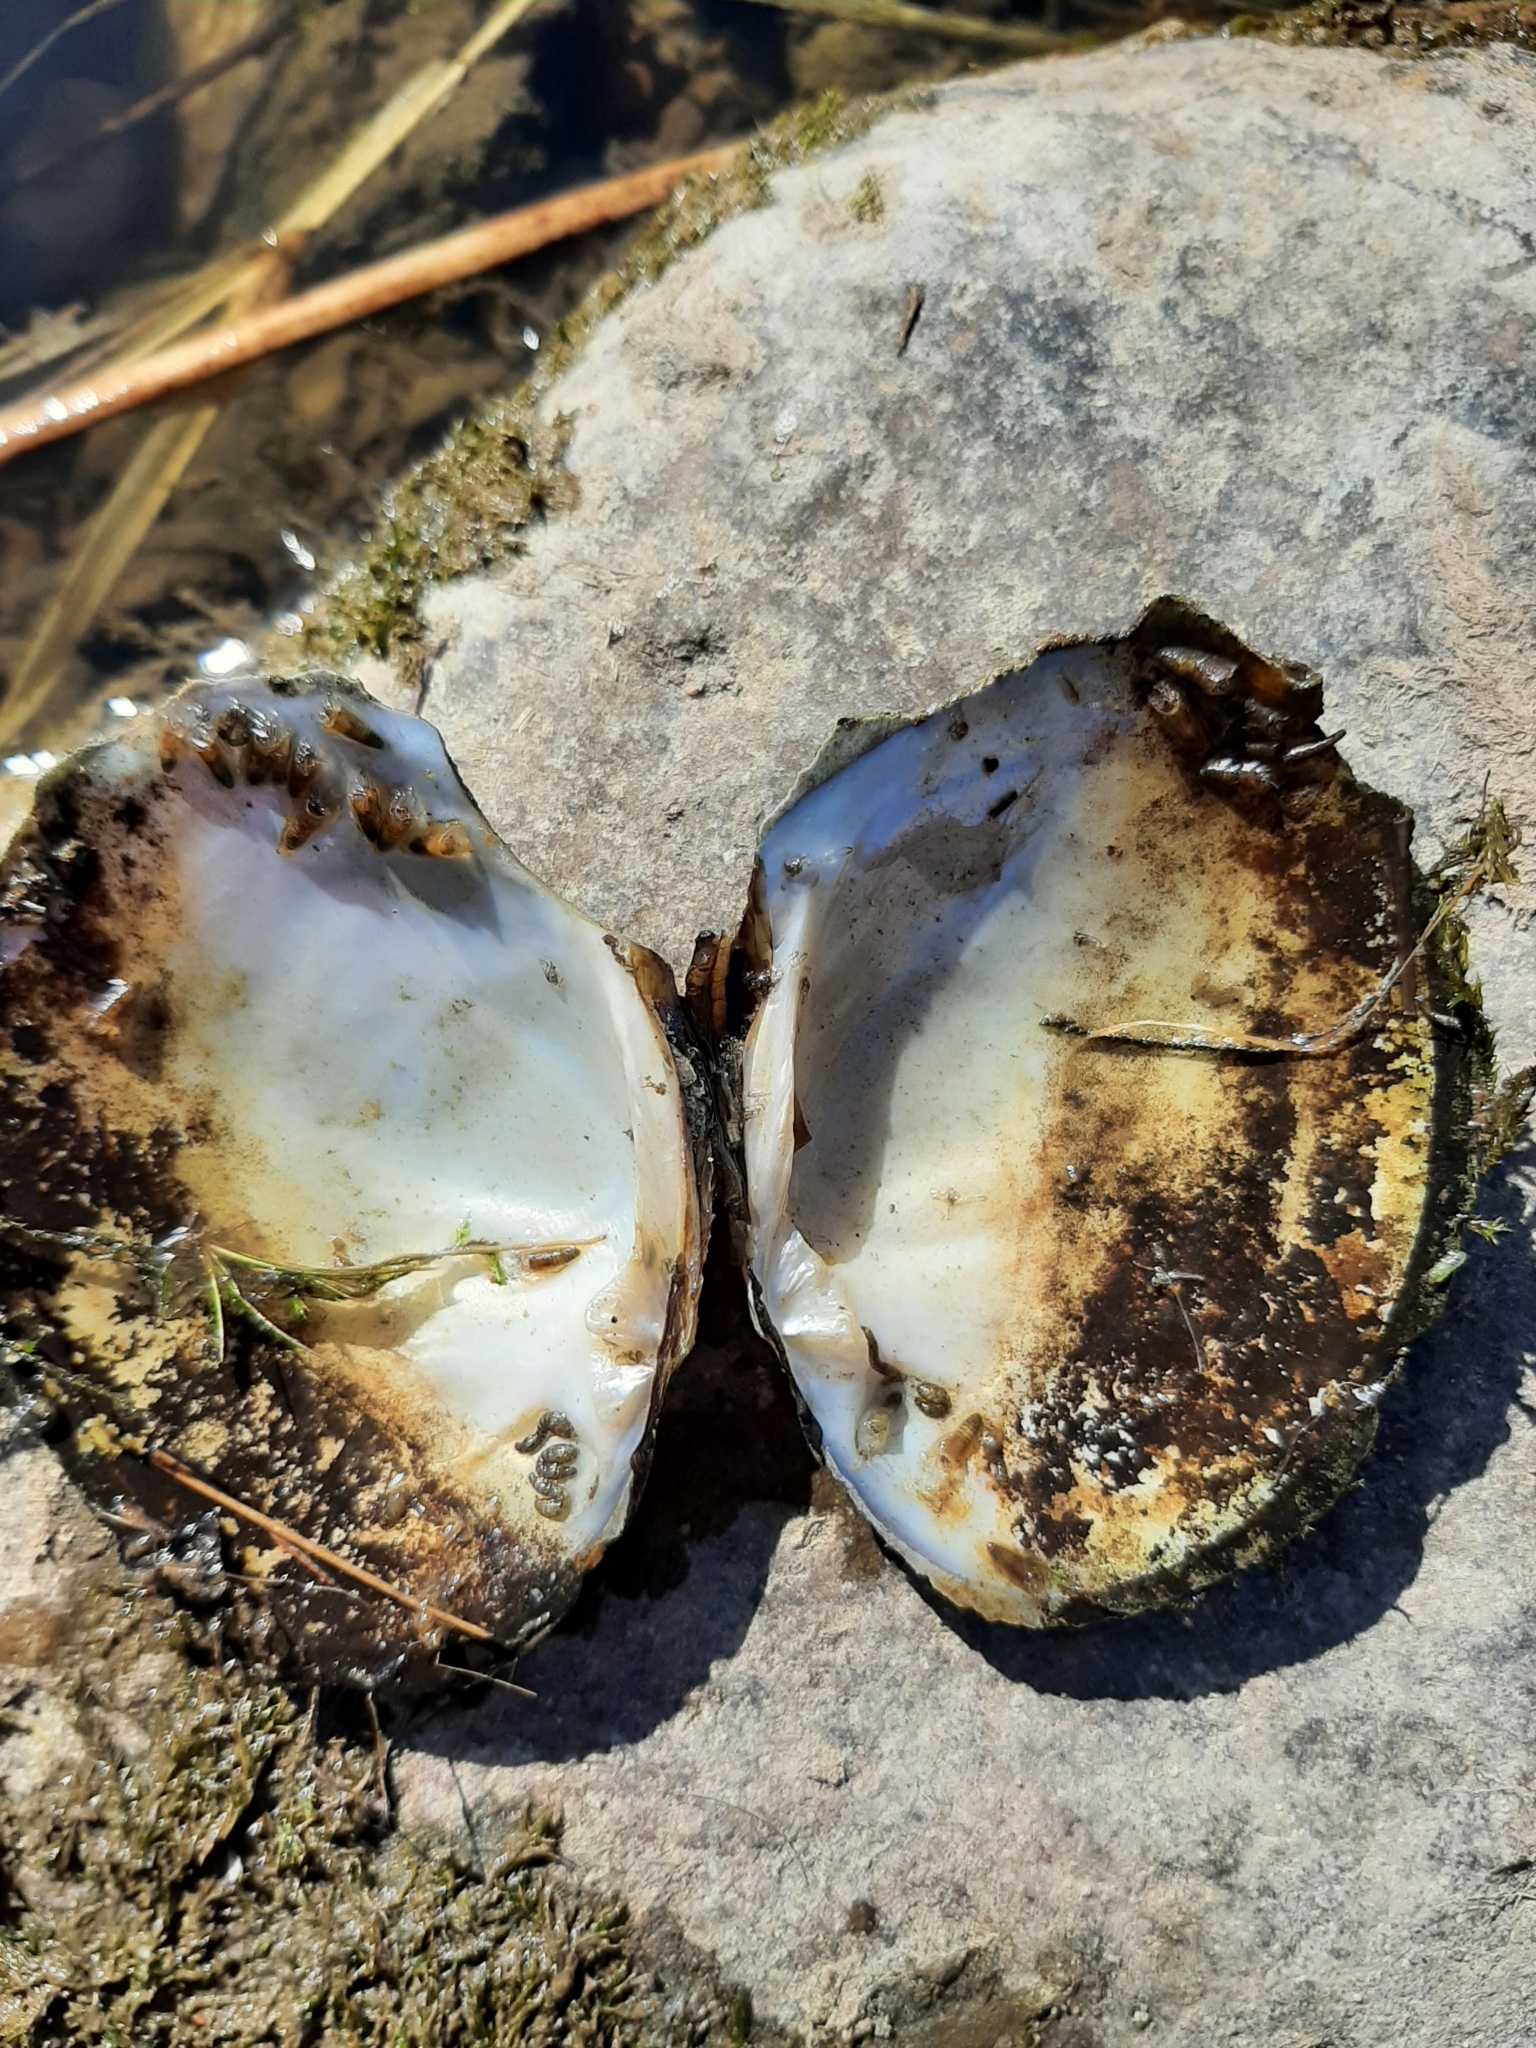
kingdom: Animalia
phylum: Mollusca
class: Bivalvia
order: Unionida
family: Unionidae
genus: Lasmigona
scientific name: Lasmigona complanata
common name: White heelsplitter
